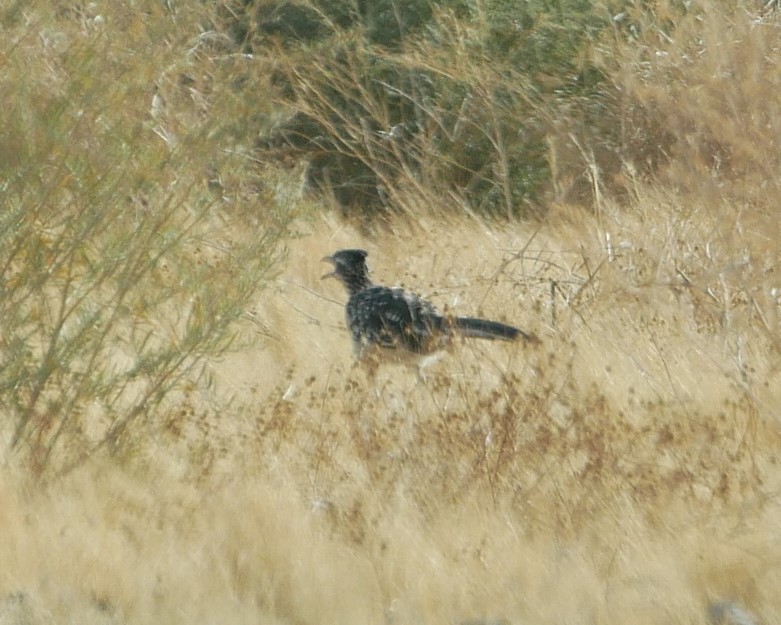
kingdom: Animalia
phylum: Chordata
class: Aves
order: Cuculiformes
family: Cuculidae
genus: Geococcyx
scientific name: Geococcyx californianus
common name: Greater roadrunner
